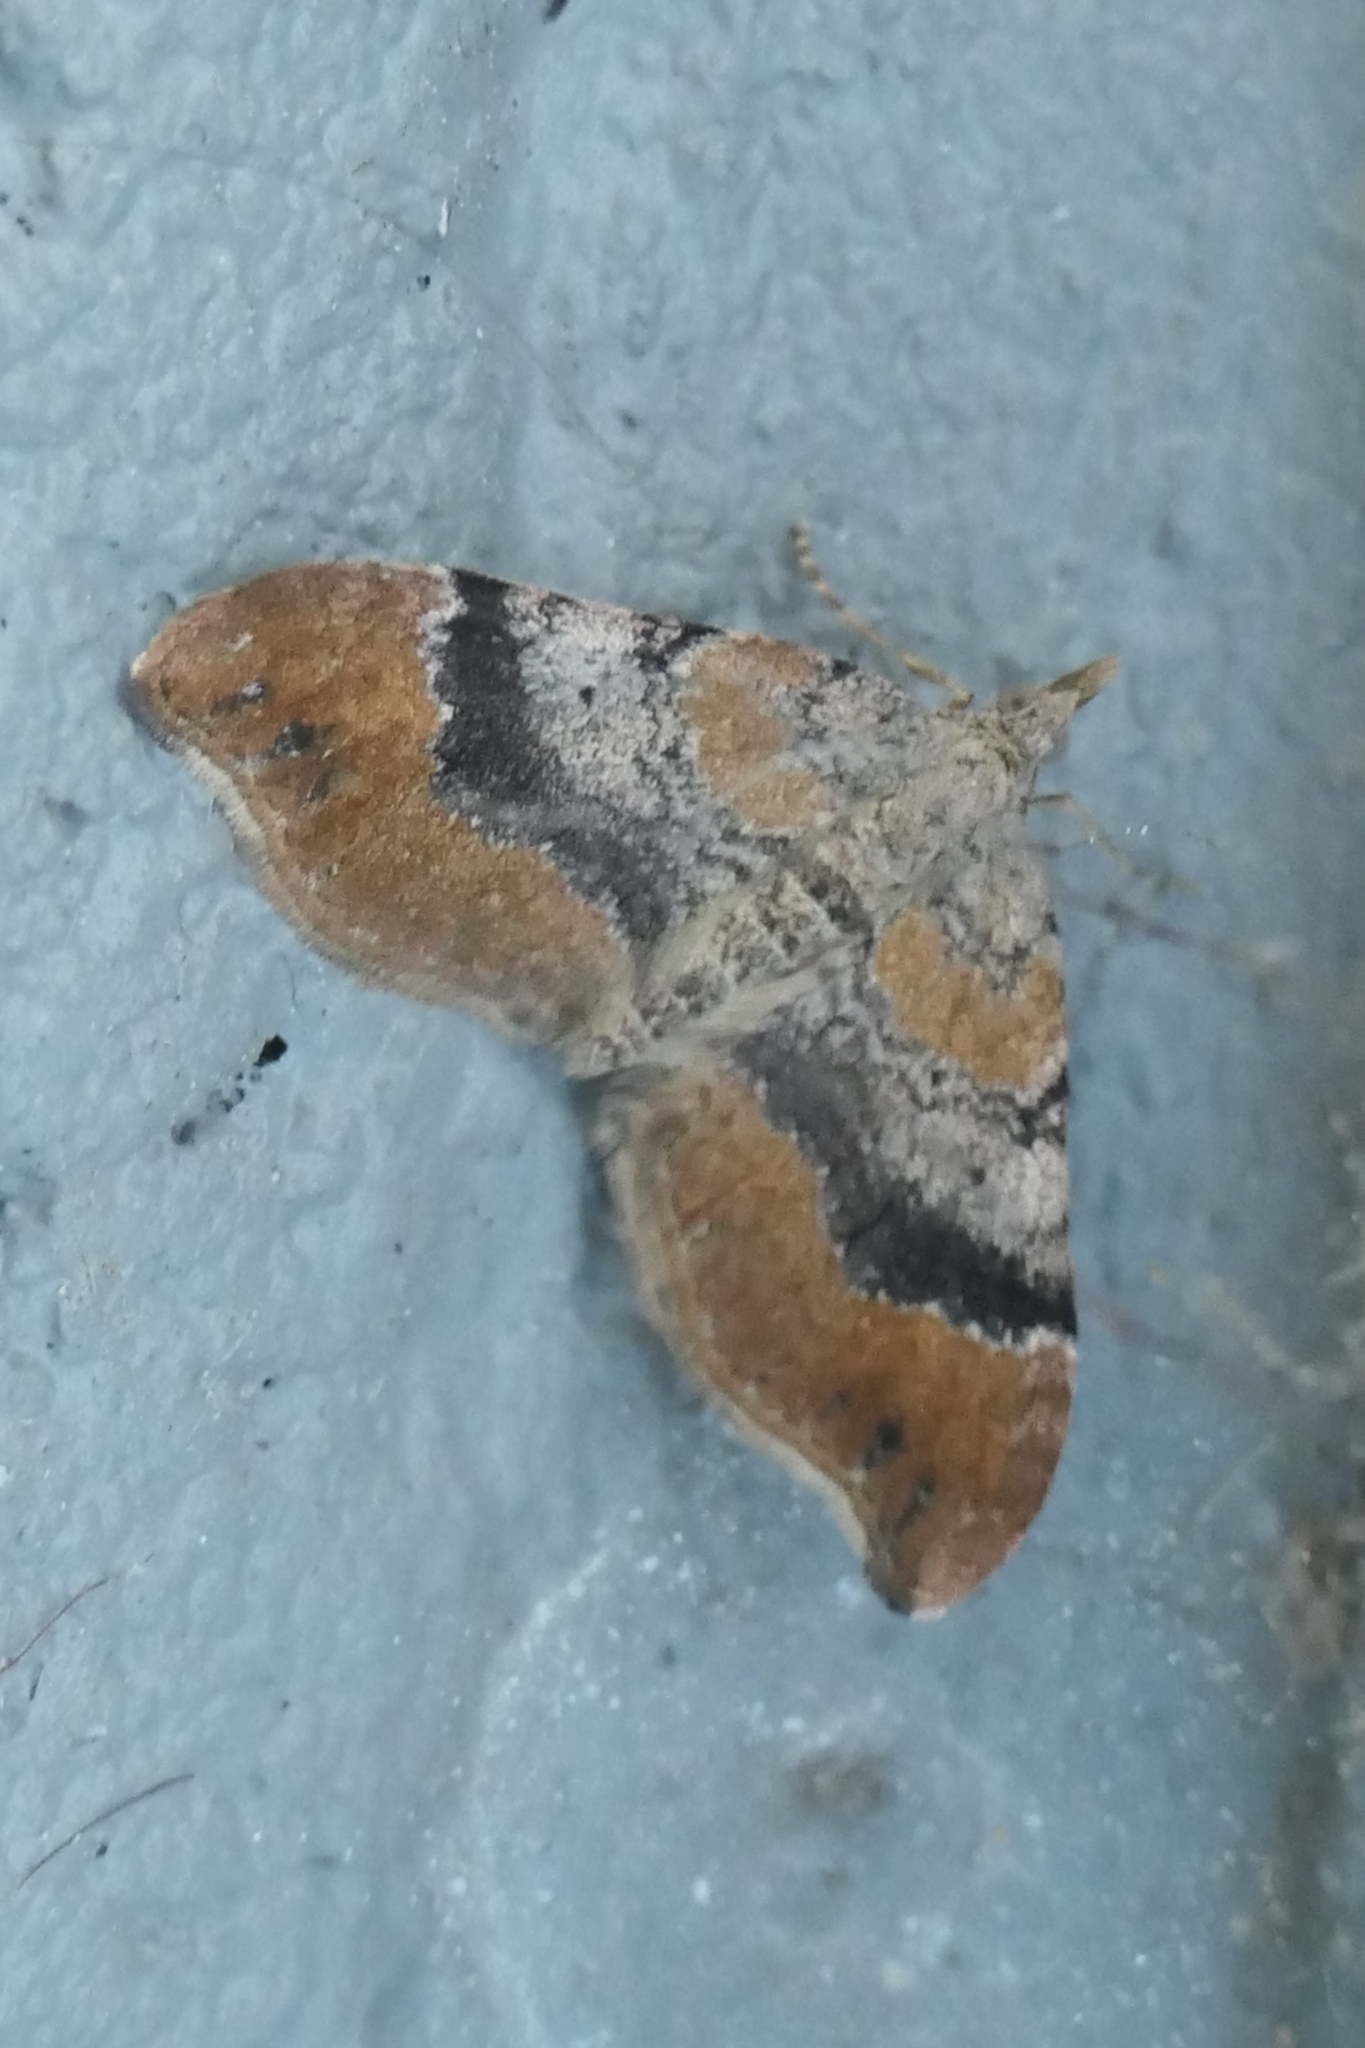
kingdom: Animalia
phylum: Arthropoda
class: Insecta
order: Lepidoptera
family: Geometridae
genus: Homodotis
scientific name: Homodotis megaspilata
